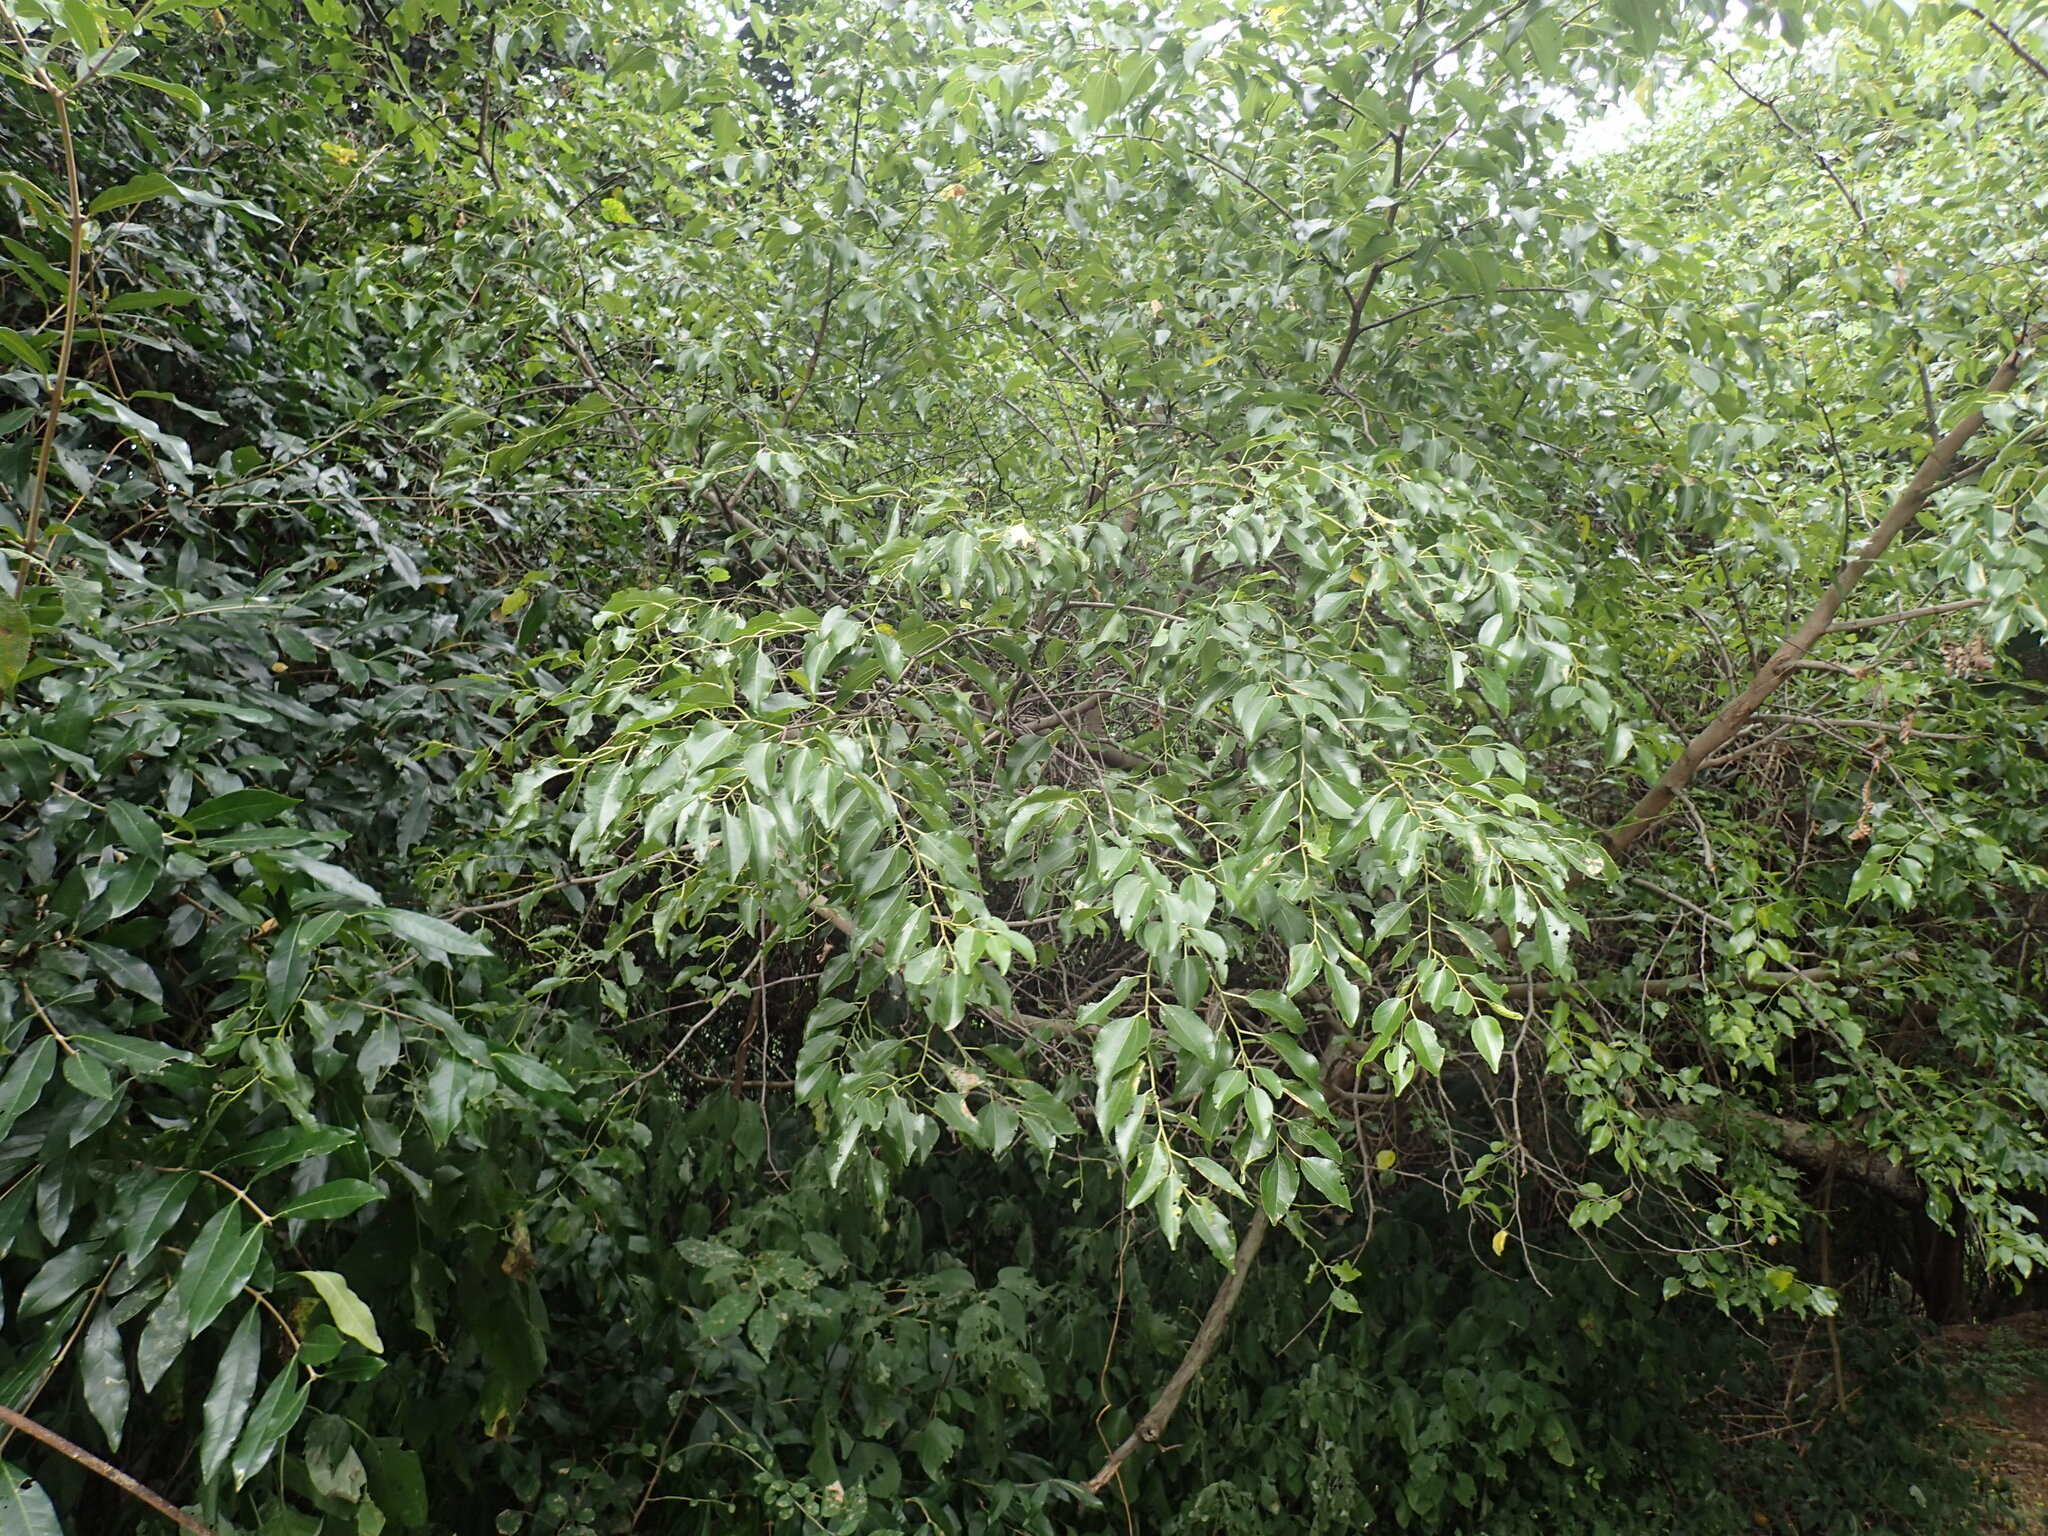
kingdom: Plantae
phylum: Tracheophyta
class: Magnoliopsida
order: Rosales
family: Rhamnaceae
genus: Ziziphus
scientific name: Ziziphus mucronata
